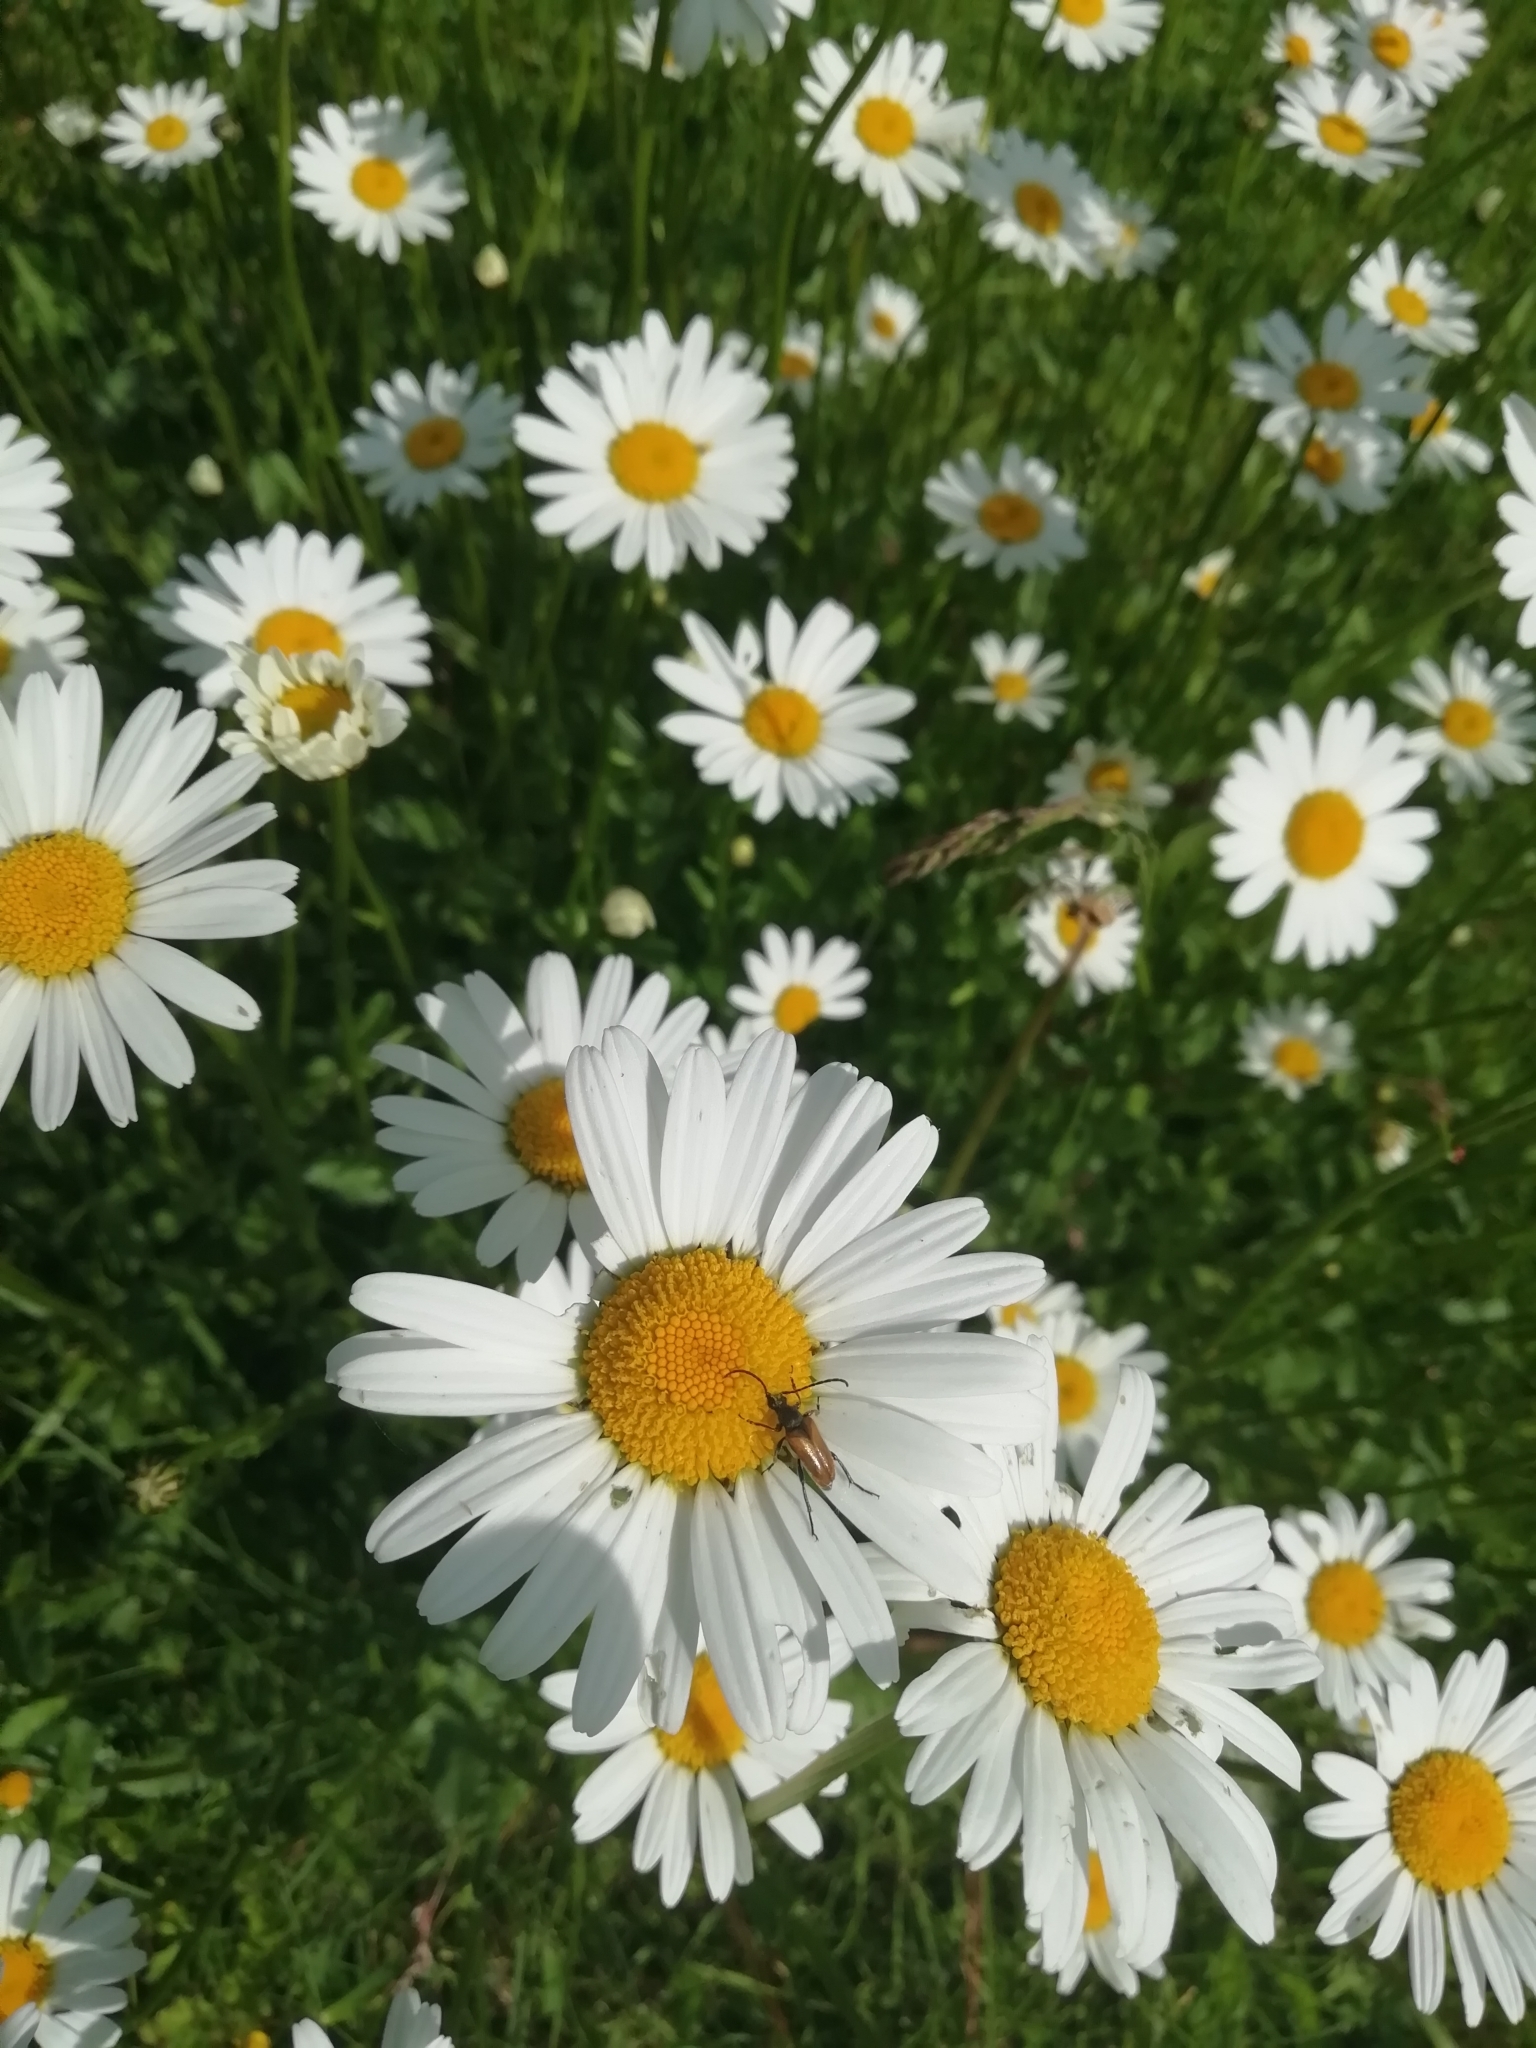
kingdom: Animalia
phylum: Arthropoda
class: Insecta
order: Coleoptera
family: Cerambycidae
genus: Pseudovadonia
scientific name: Pseudovadonia livida
